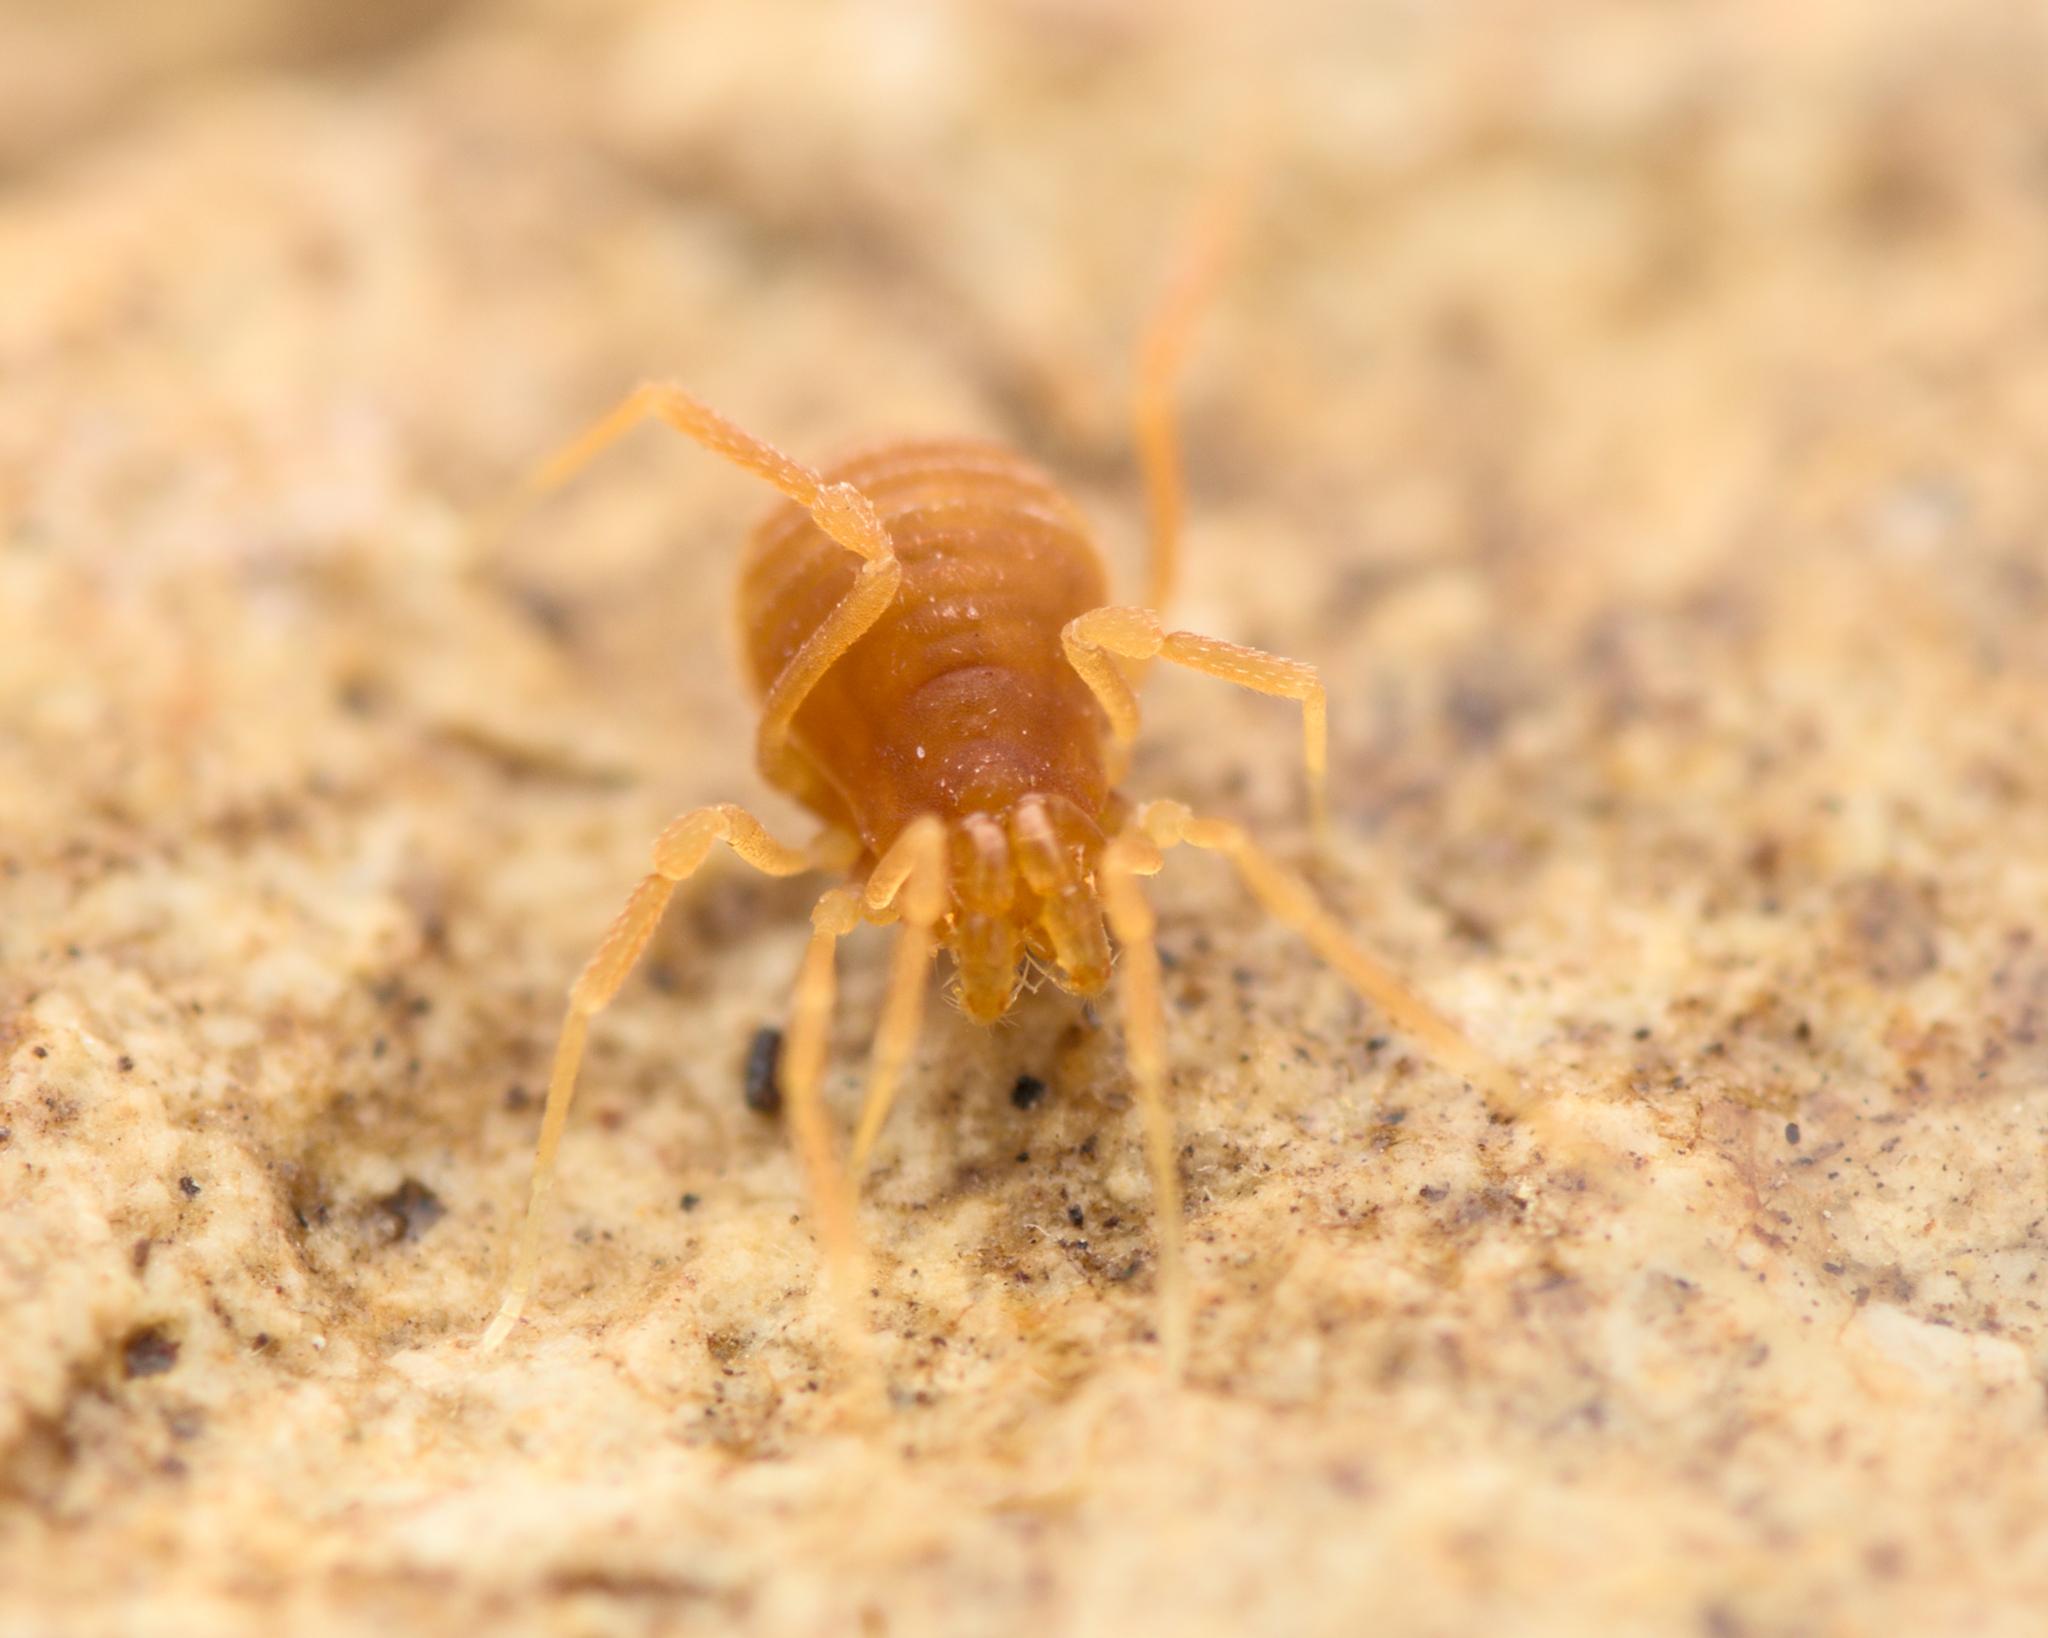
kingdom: Animalia
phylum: Arthropoda
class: Arachnida
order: Opiliones
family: Phalangodidae
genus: Scotolemon
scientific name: Scotolemon doriae
